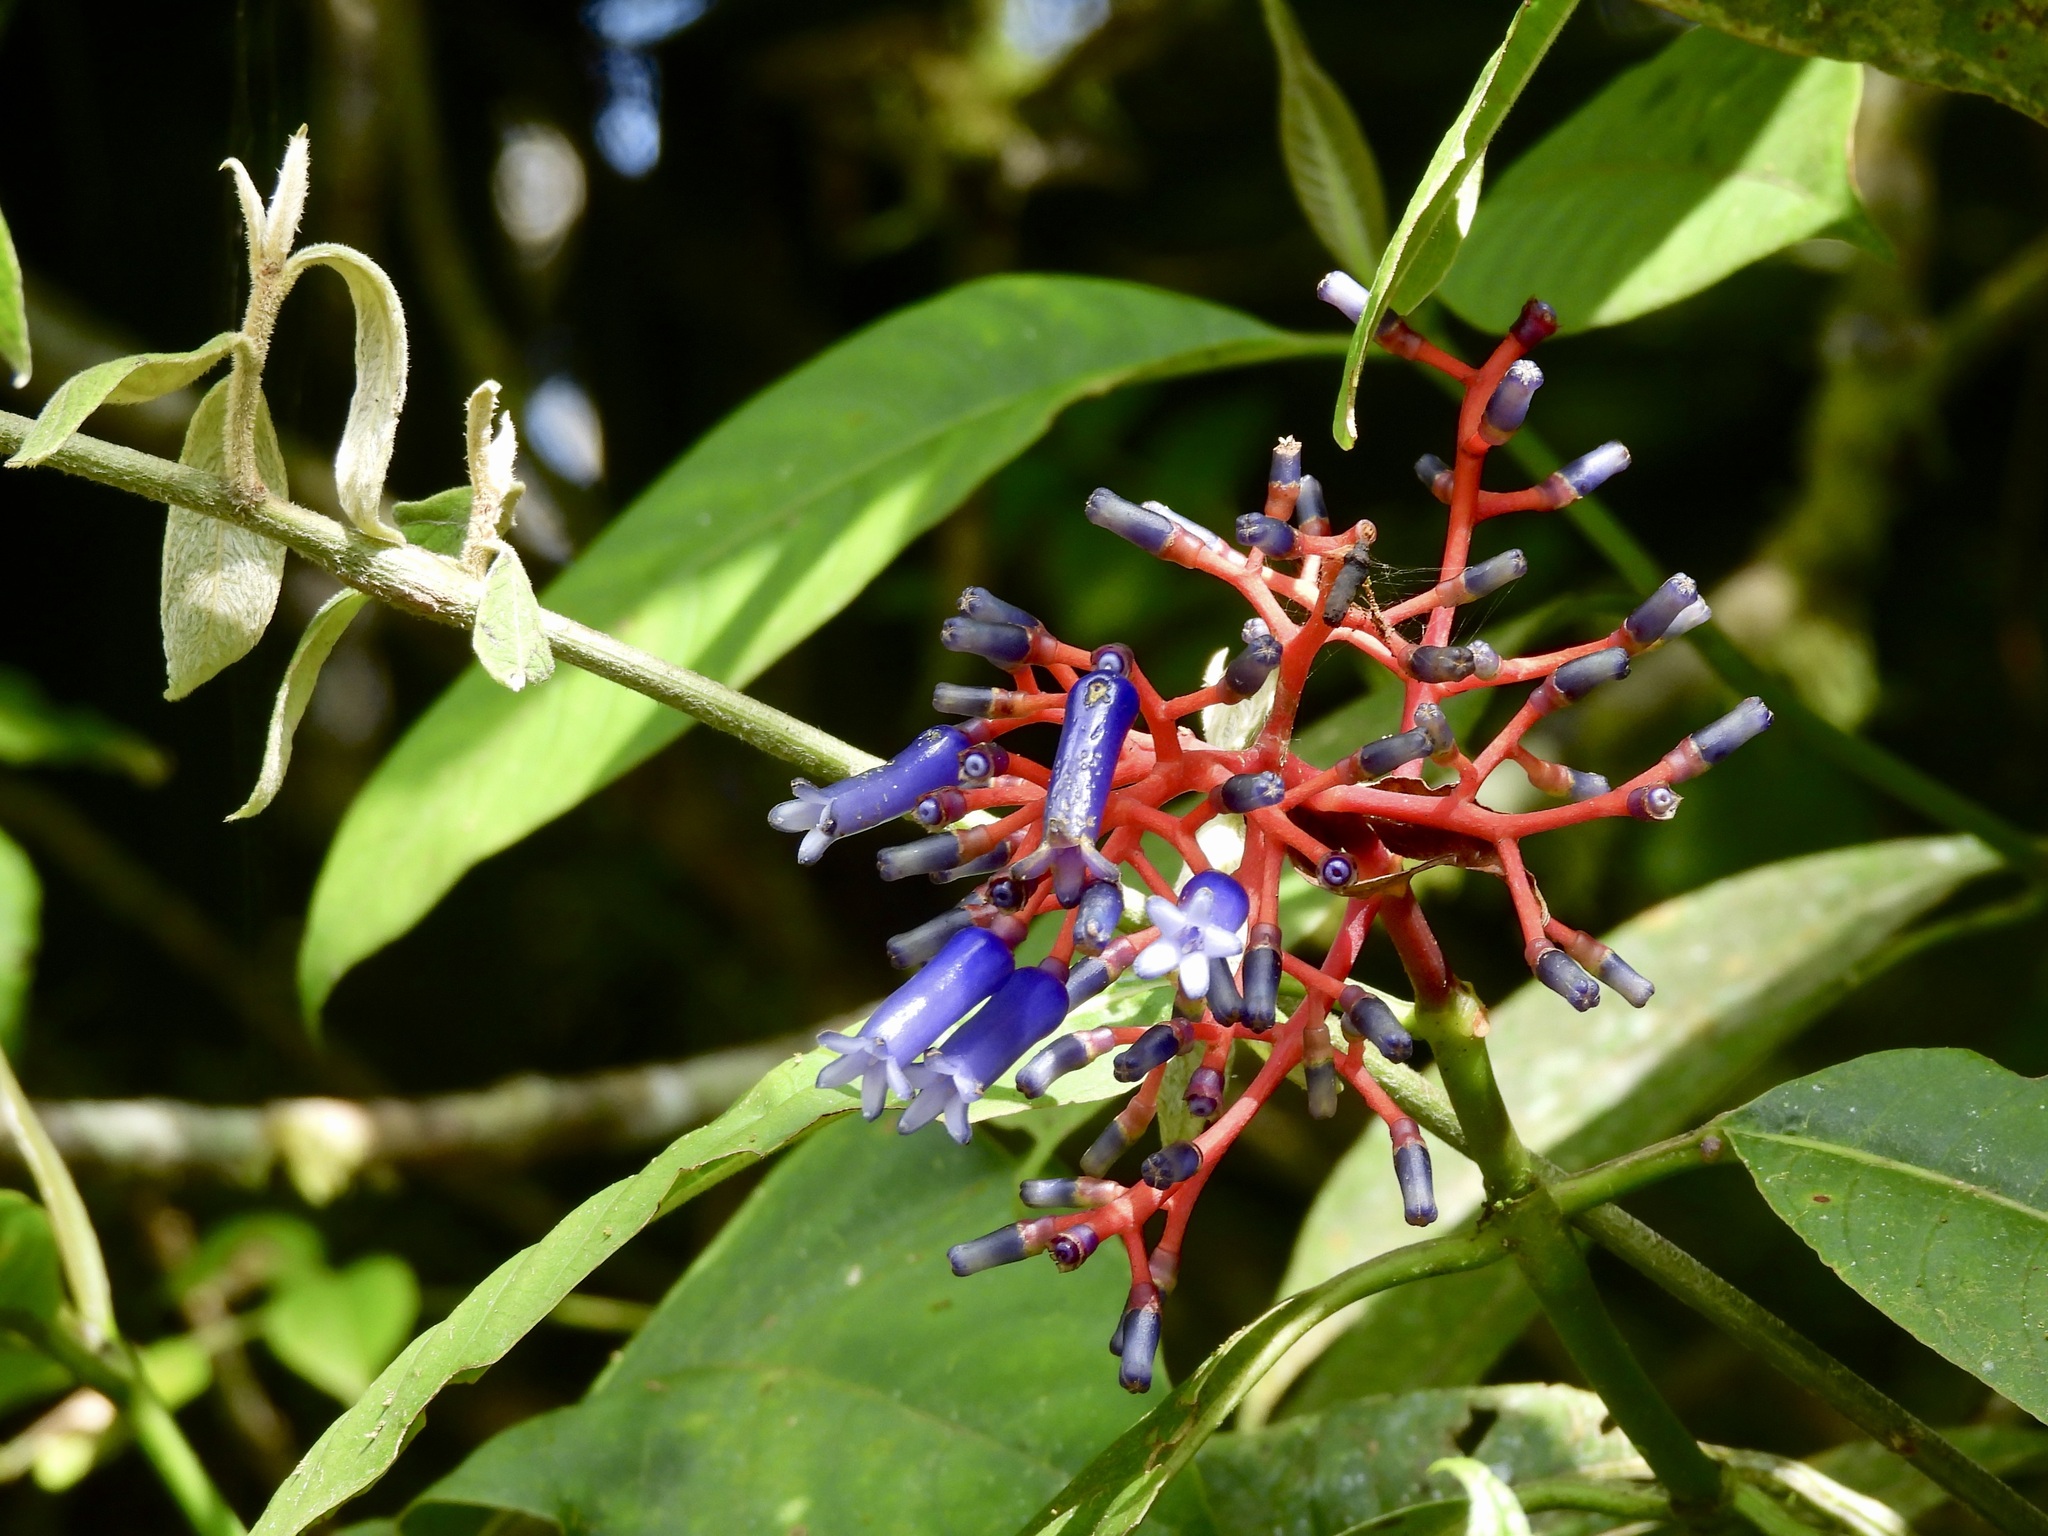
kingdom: Plantae
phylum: Tracheophyta
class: Magnoliopsida
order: Gentianales
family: Rubiaceae
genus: Palicourea
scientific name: Palicourea amethystina
